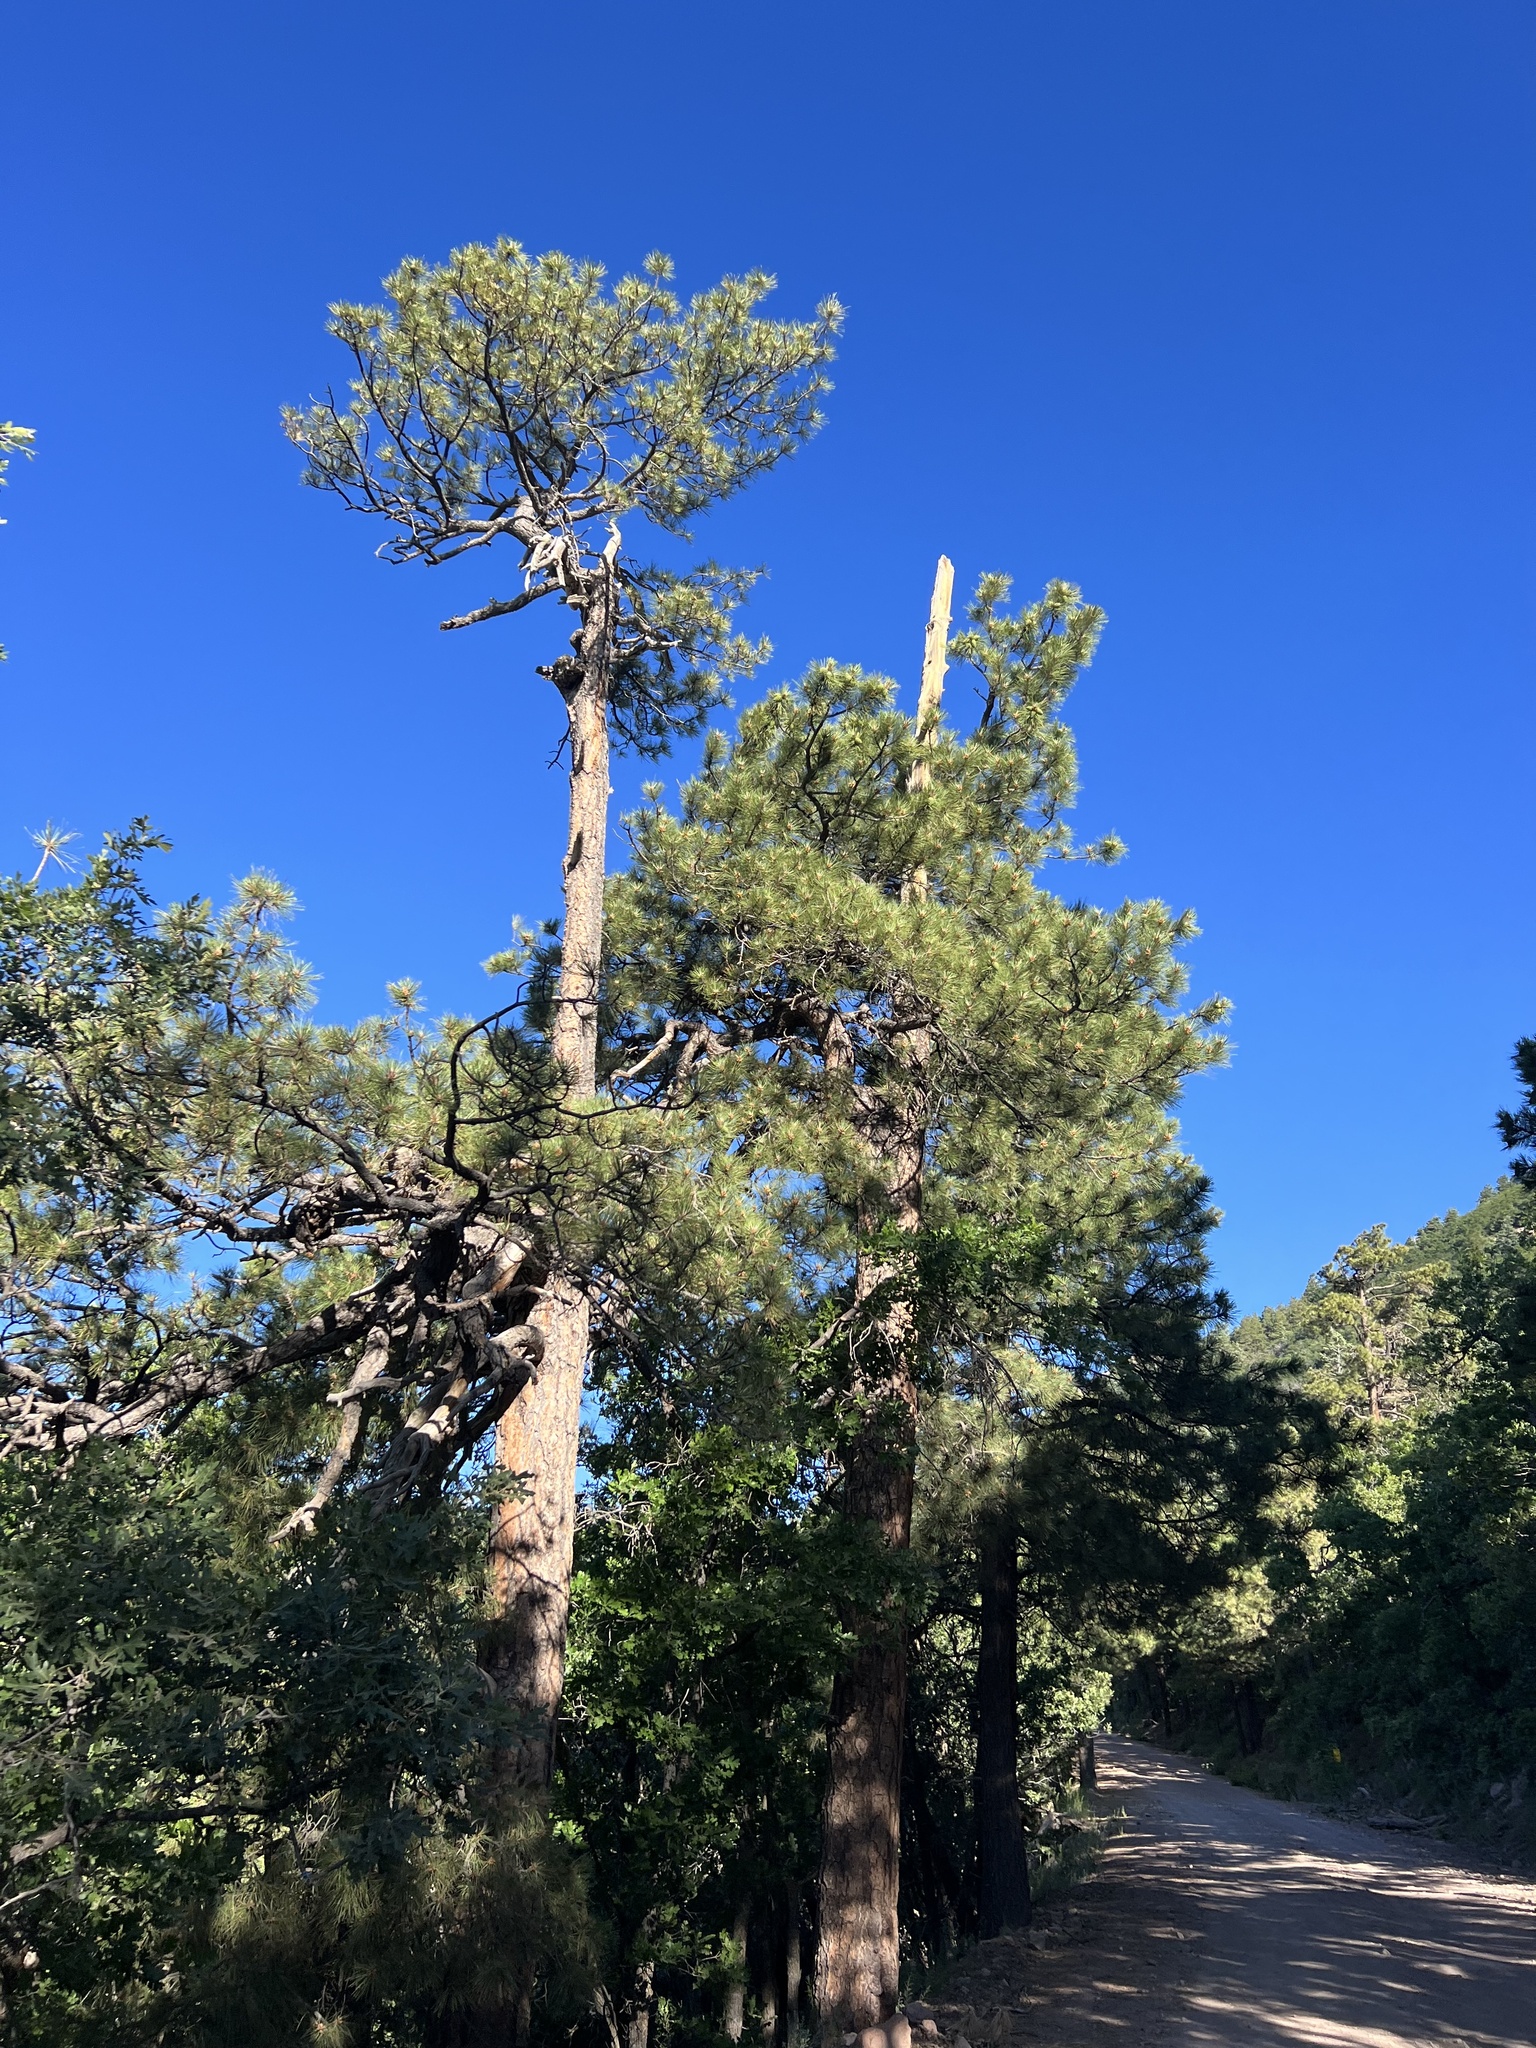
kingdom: Plantae
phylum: Tracheophyta
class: Pinopsida
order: Pinales
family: Pinaceae
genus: Pinus
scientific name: Pinus ponderosa
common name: Western yellow-pine
